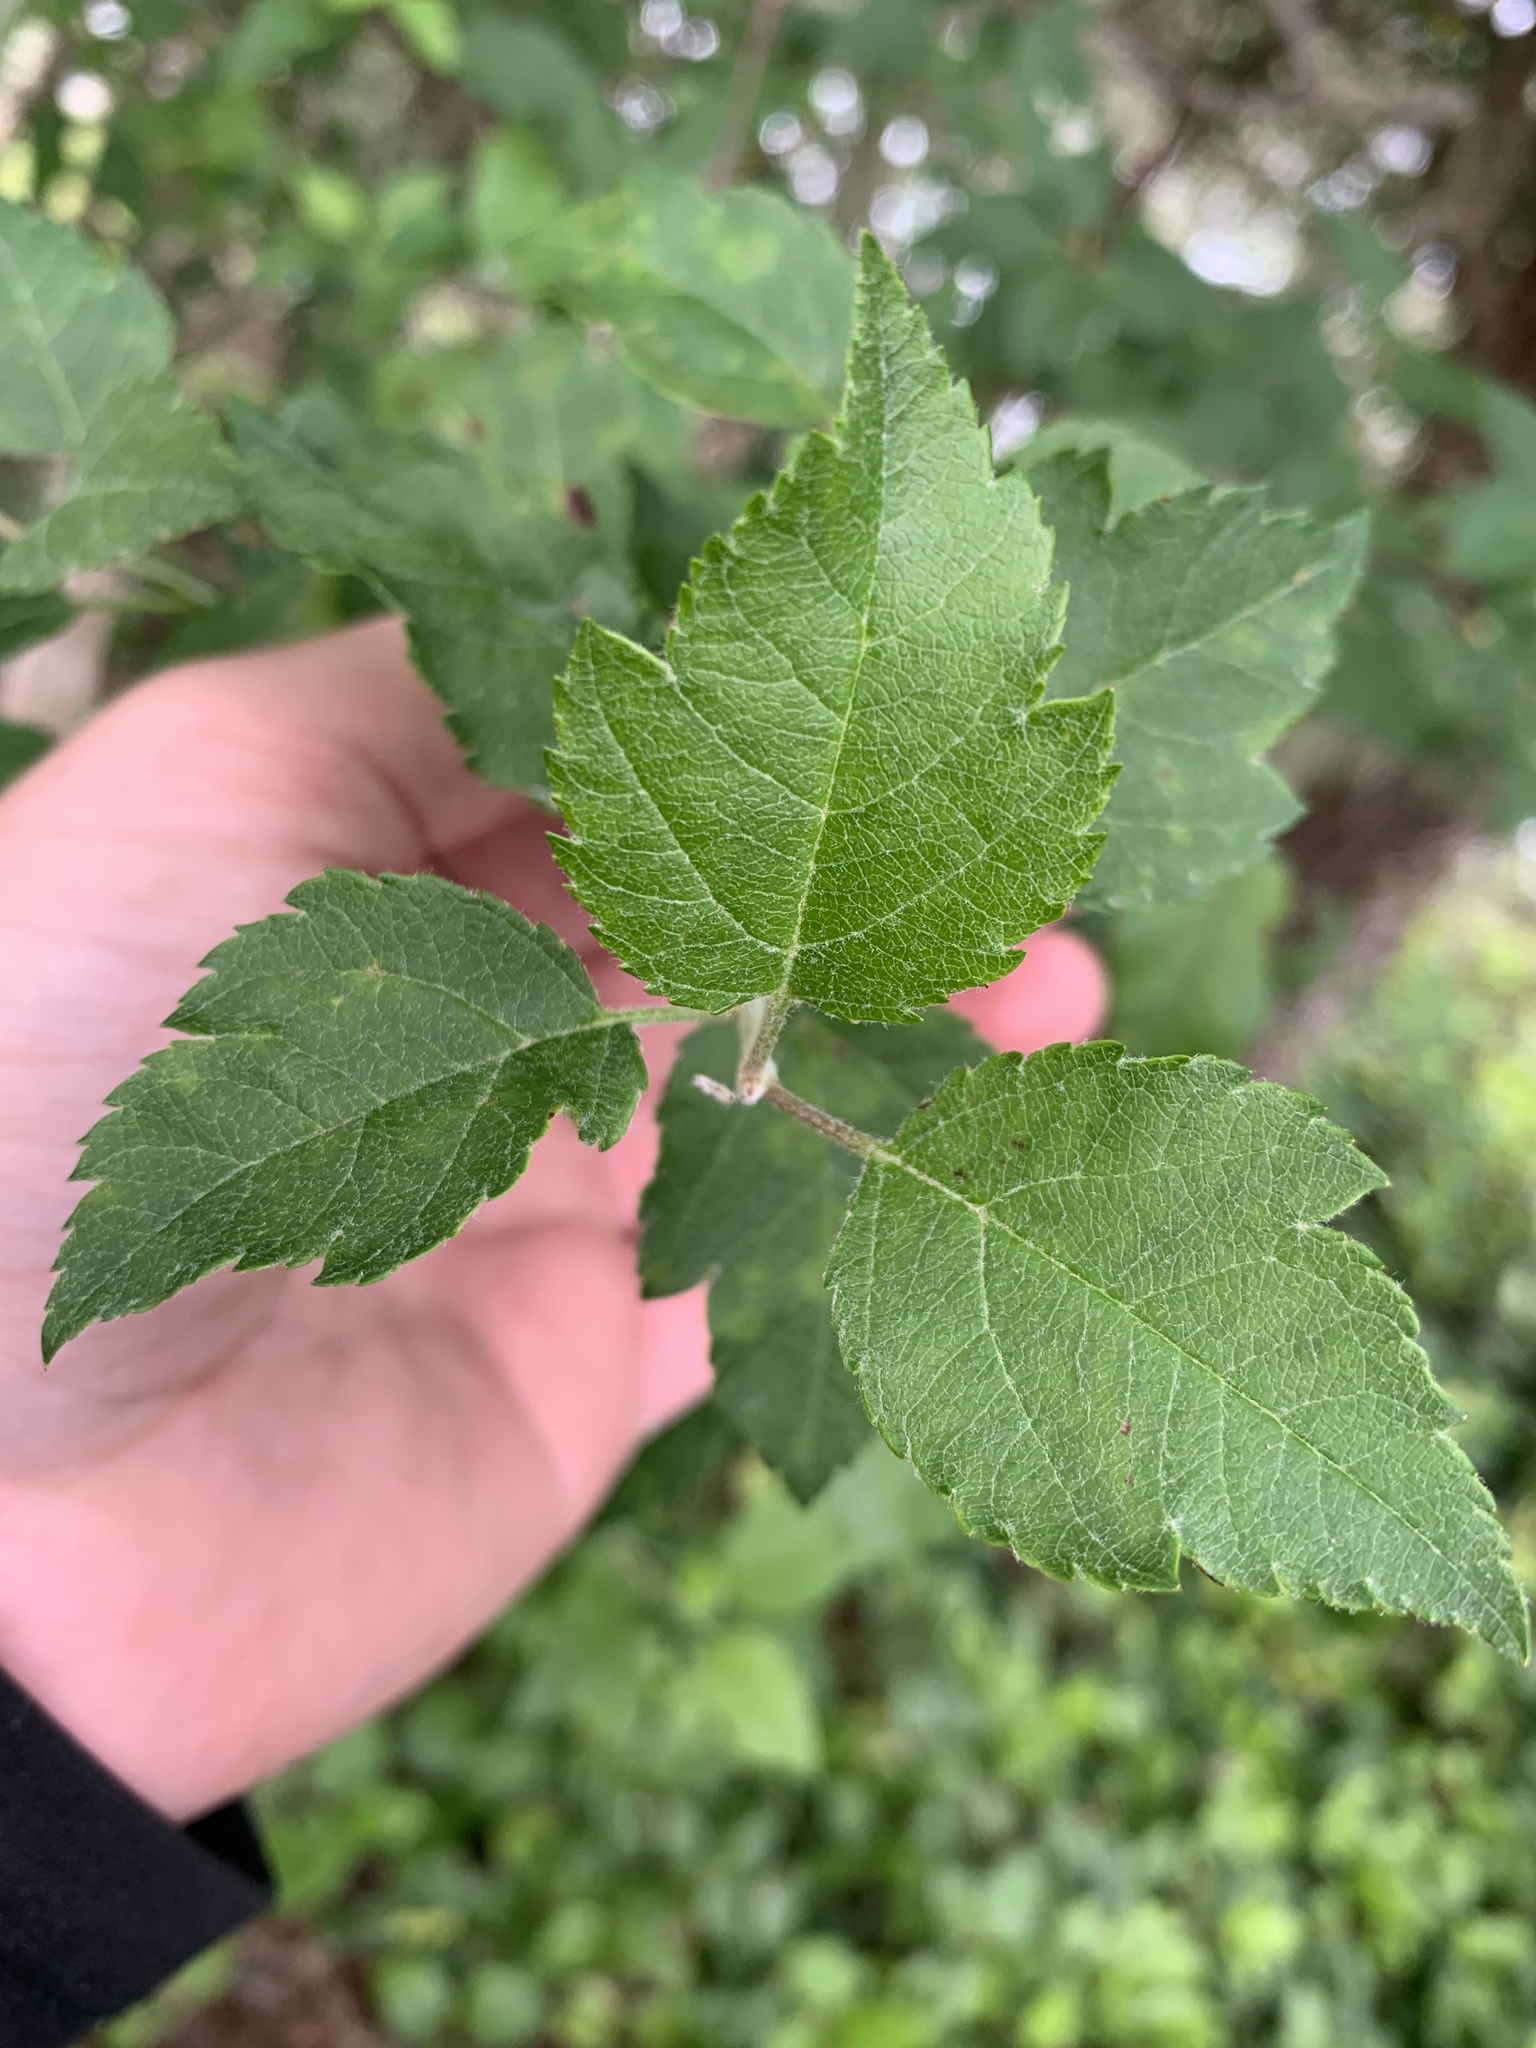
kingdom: Plantae
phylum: Tracheophyta
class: Magnoliopsida
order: Rosales
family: Rosaceae
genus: Malus
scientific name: Malus fusca
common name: Oregon crab apple
